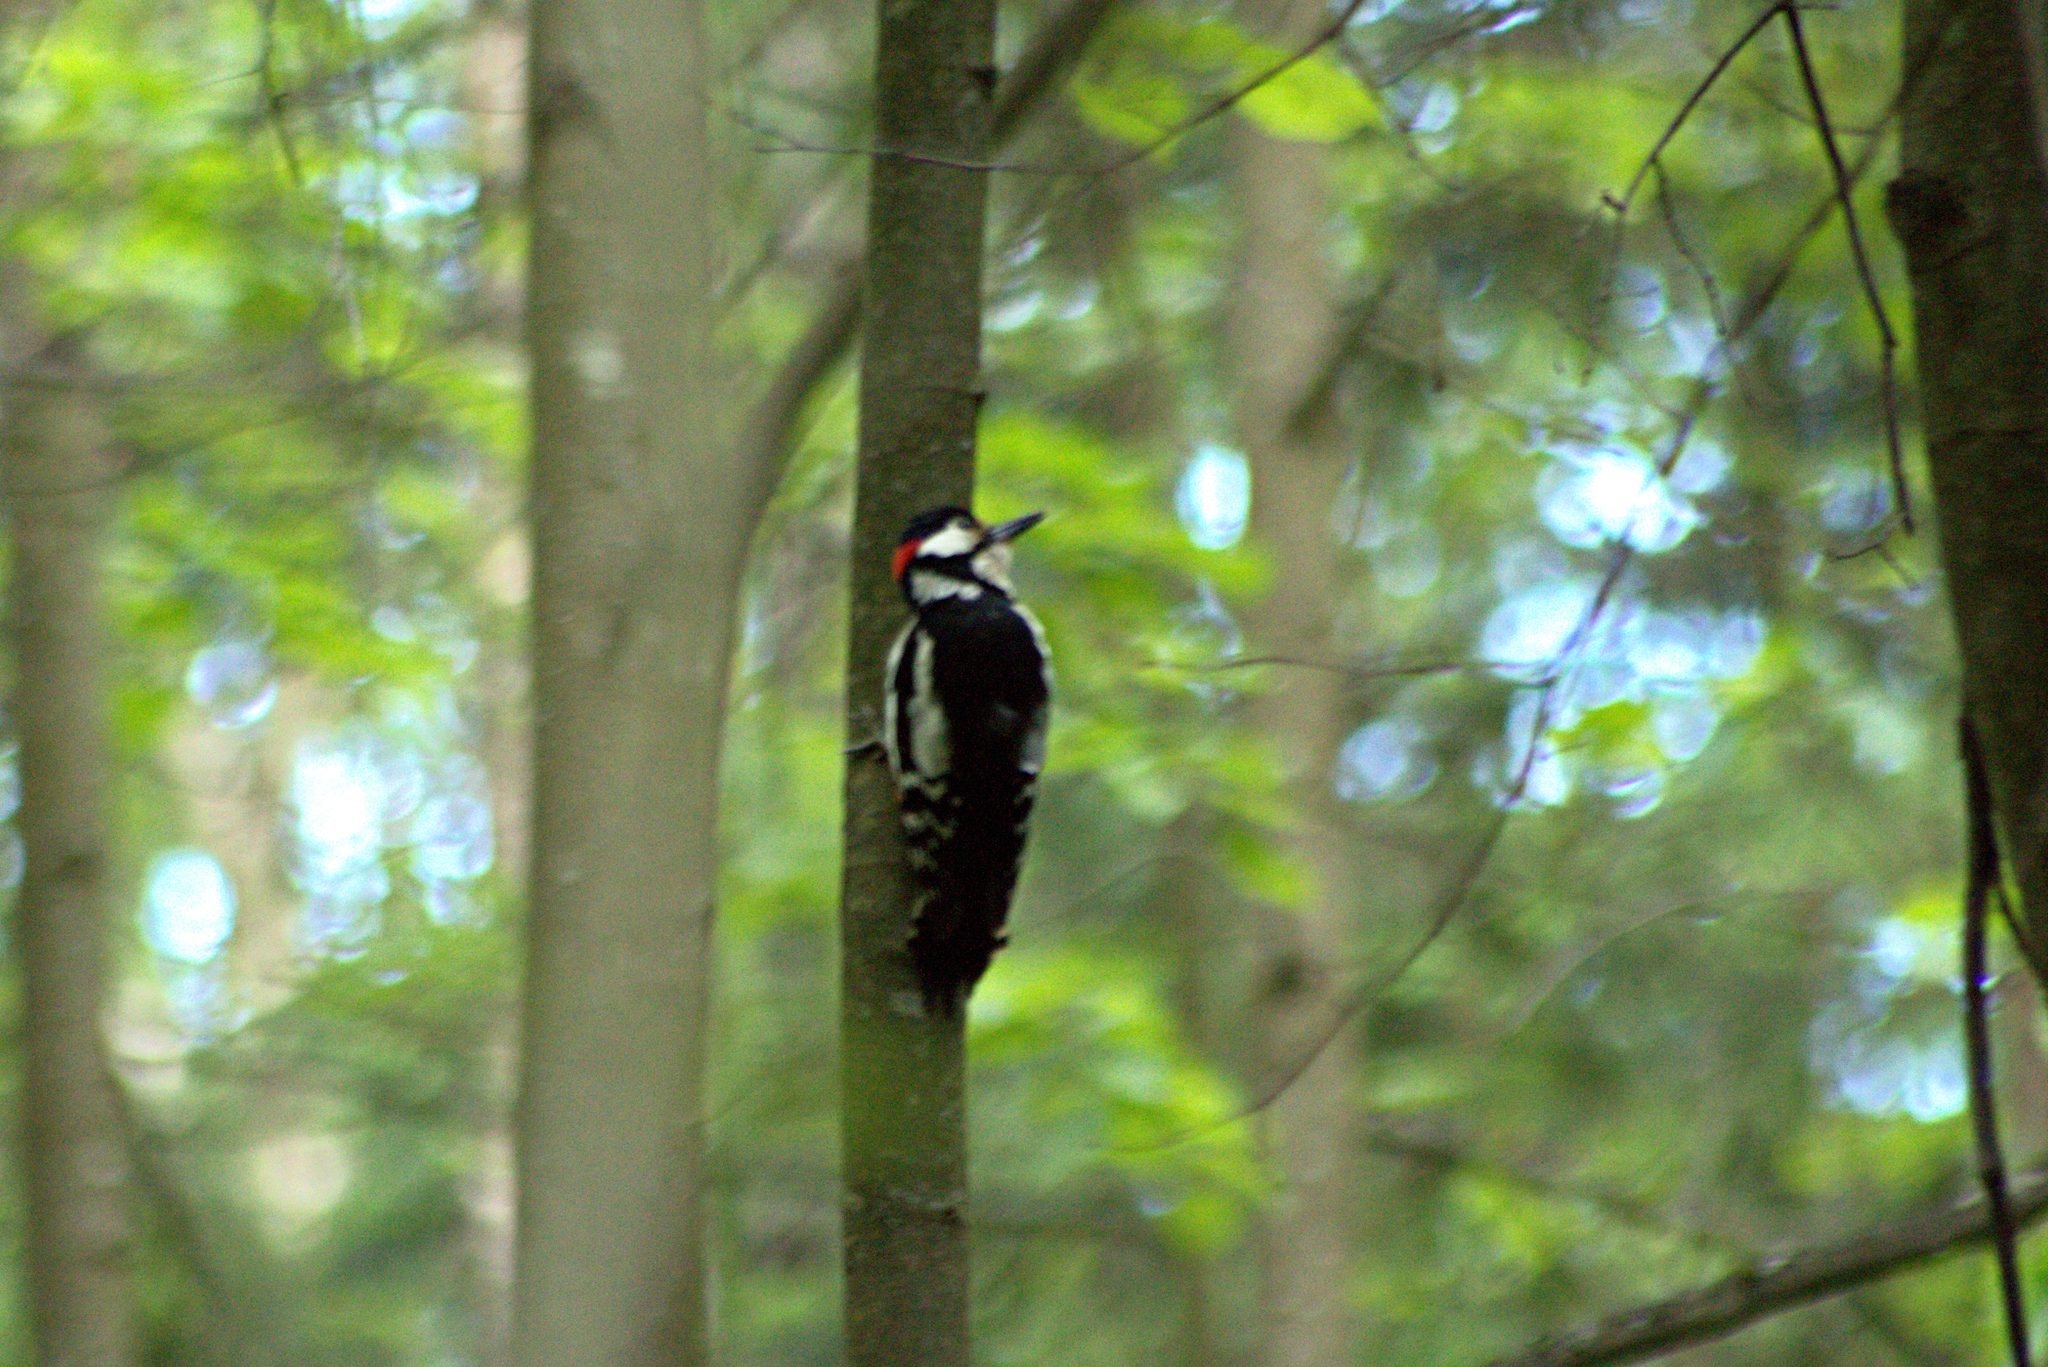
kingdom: Animalia
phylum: Chordata
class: Aves
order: Piciformes
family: Picidae
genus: Dendrocopos
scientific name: Dendrocopos major
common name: Great spotted woodpecker
